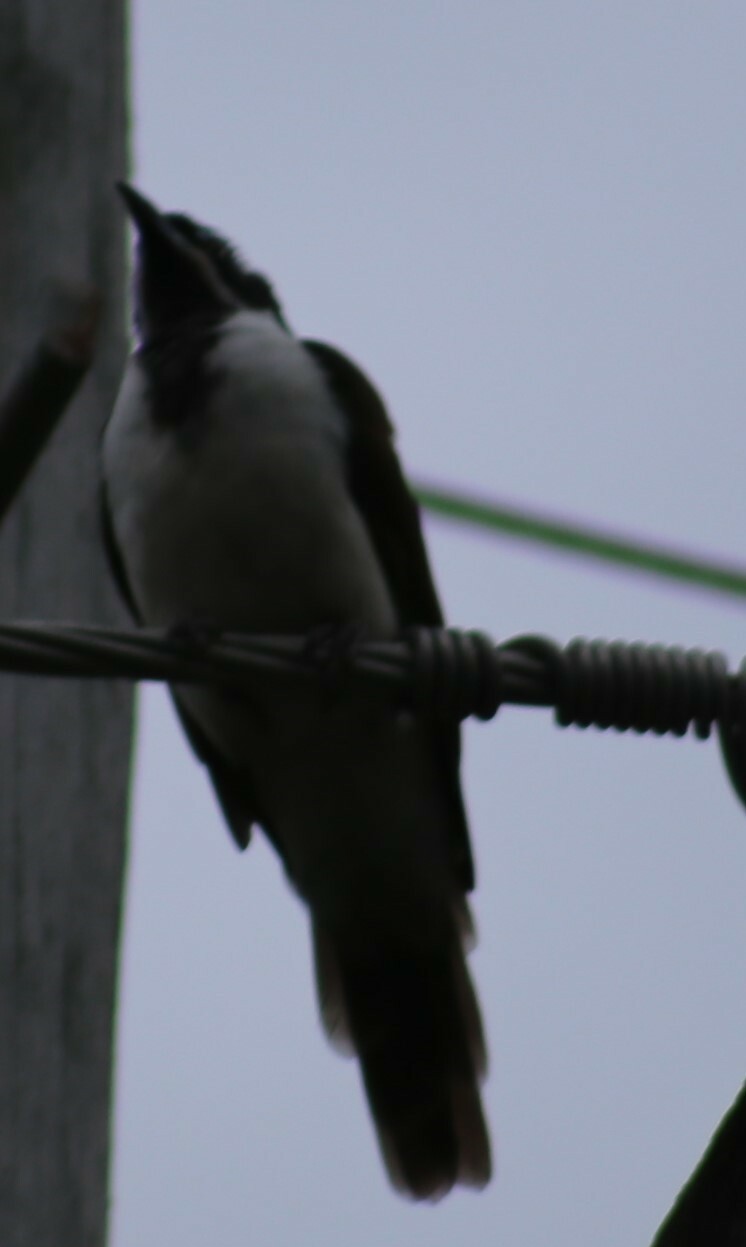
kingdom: Animalia
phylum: Chordata
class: Aves
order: Passeriformes
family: Meliphagidae
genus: Entomyzon
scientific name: Entomyzon cyanotis
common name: Blue-faced honeyeater
